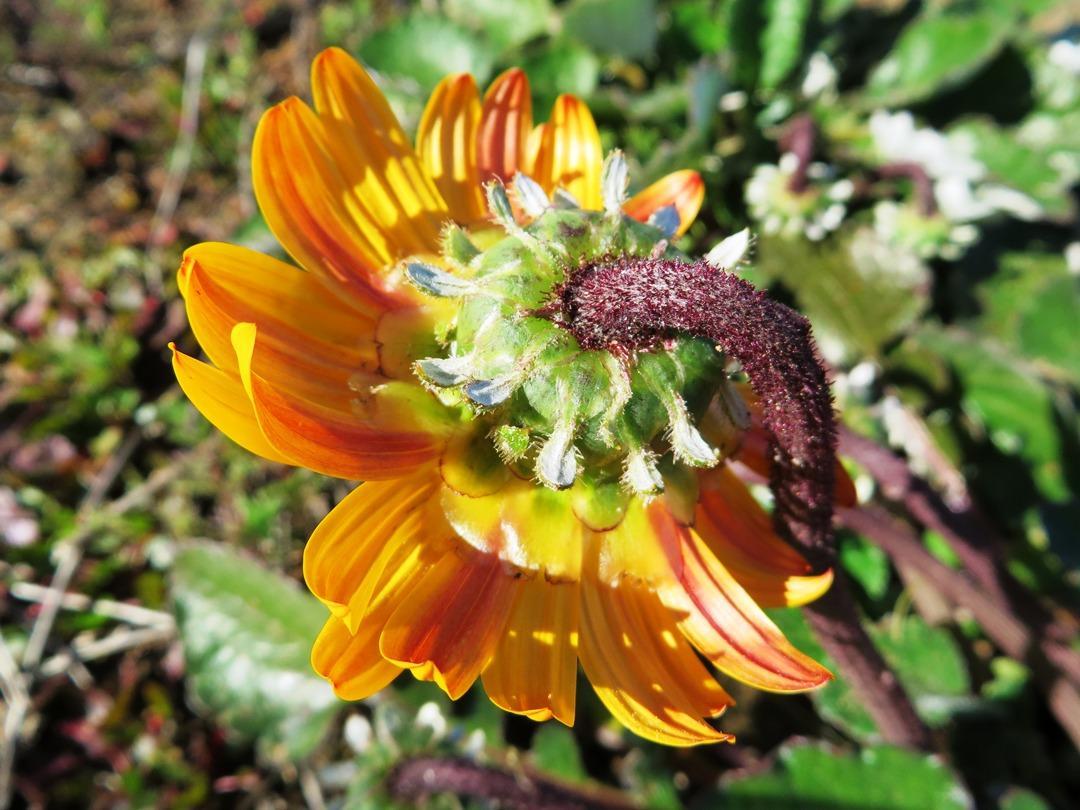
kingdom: Plantae
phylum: Tracheophyta
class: Magnoliopsida
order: Asterales
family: Asteraceae
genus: Arctotis
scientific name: Arctotis acaulis
